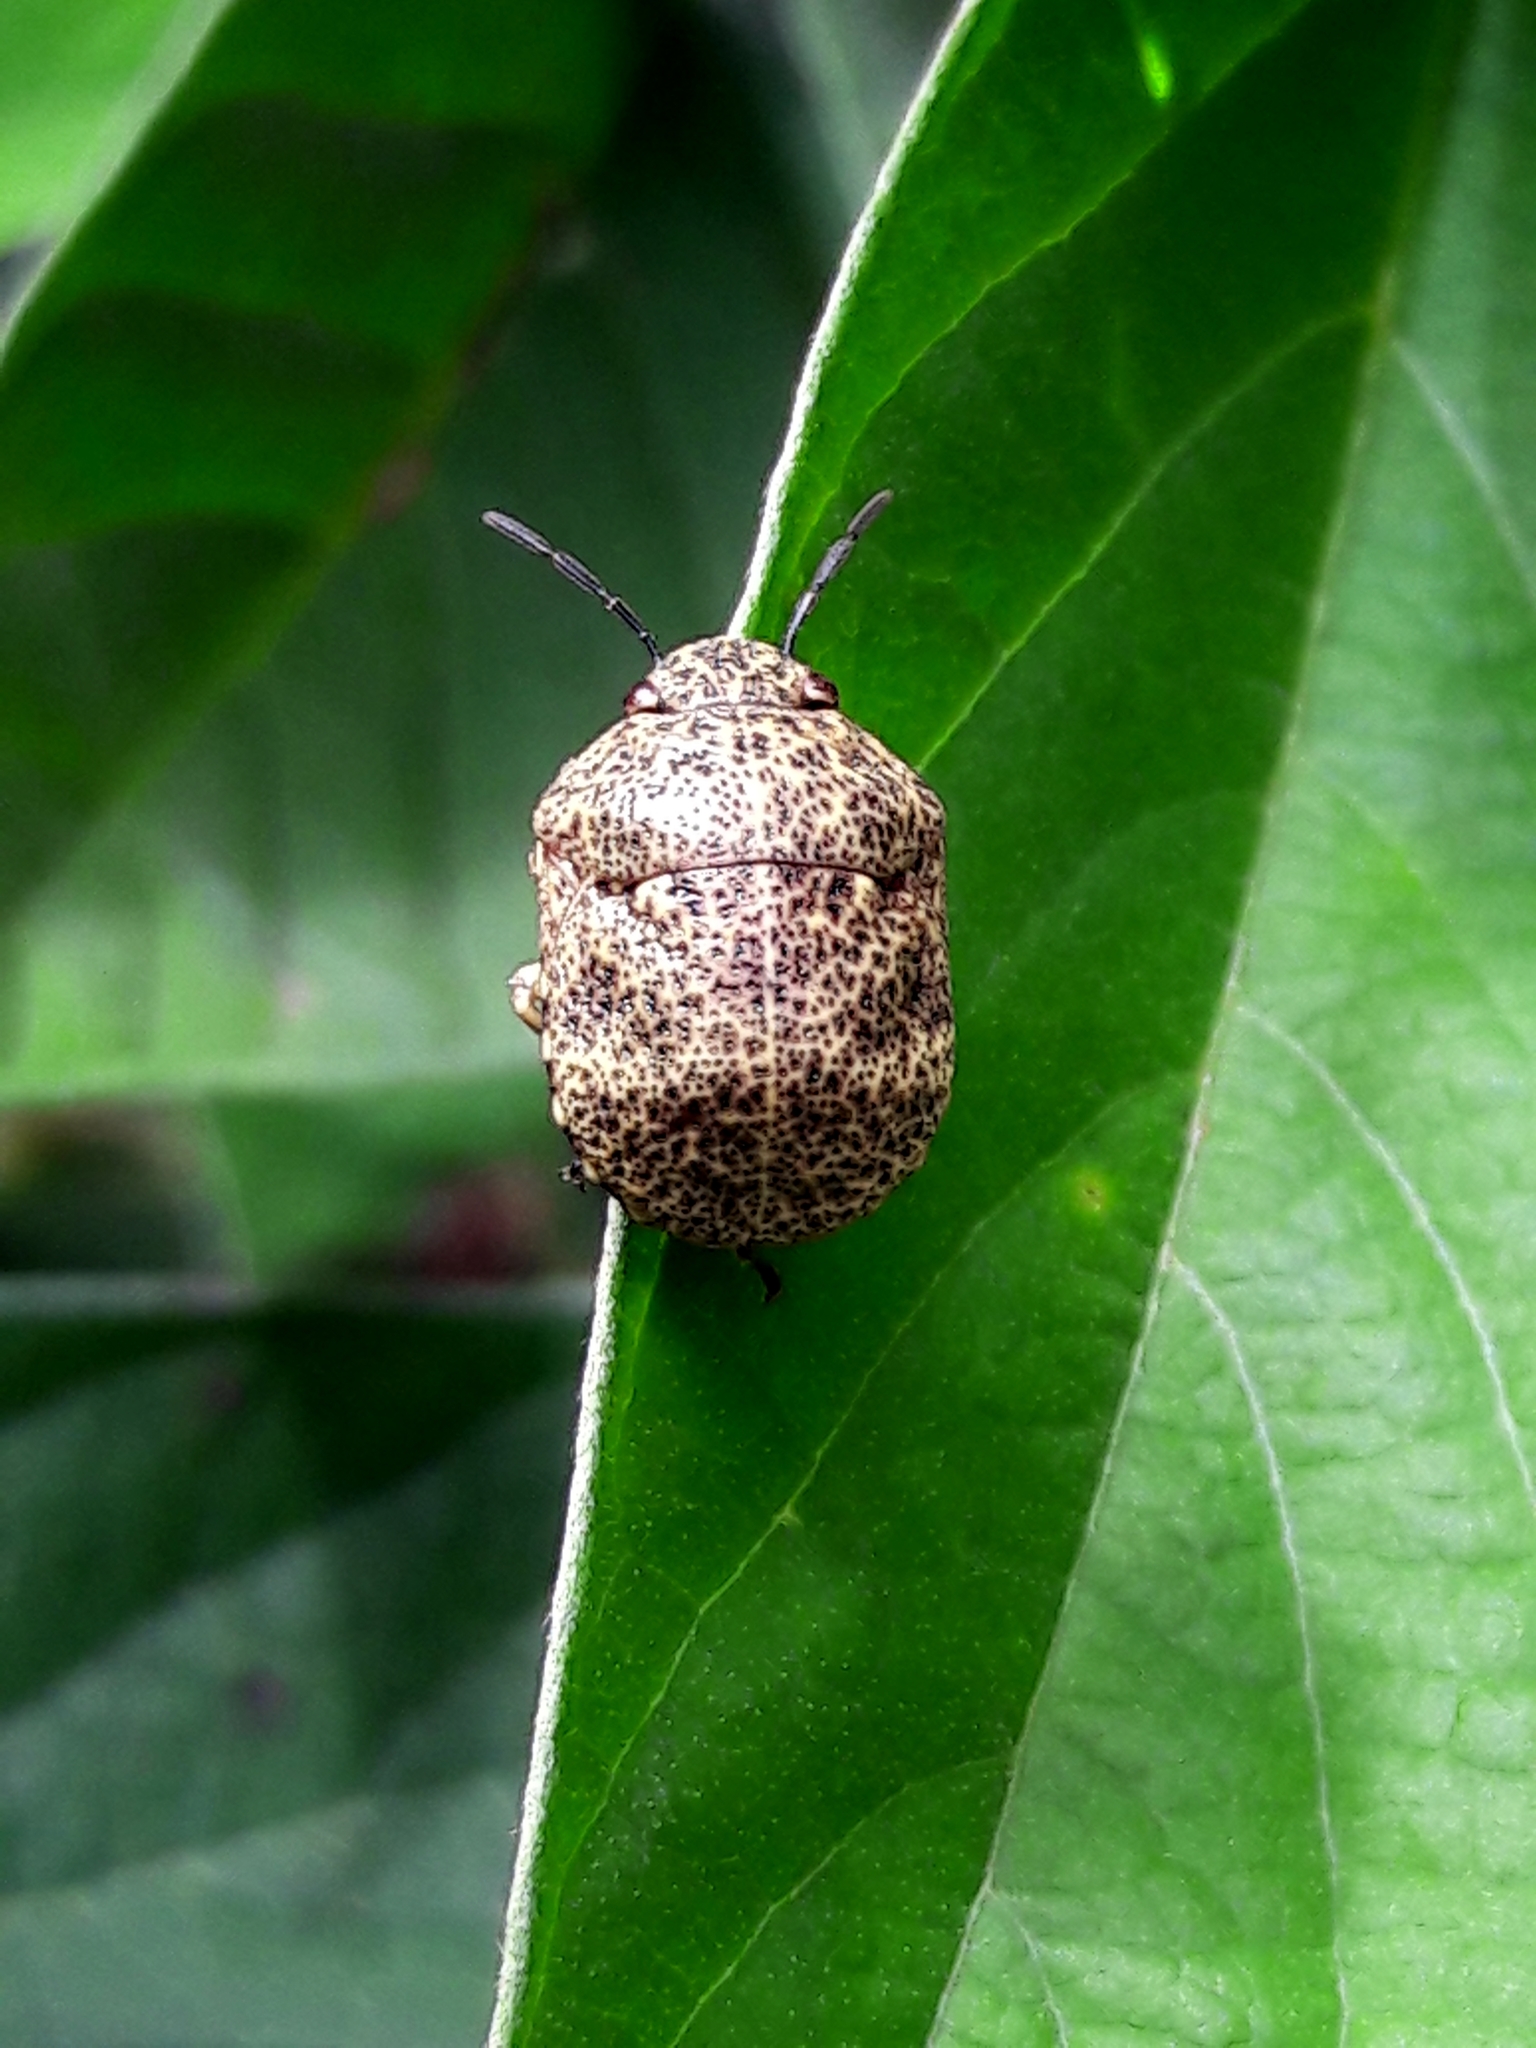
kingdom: Animalia
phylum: Arthropoda
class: Insecta
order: Hemiptera
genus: Ascanius
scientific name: Ascanius
